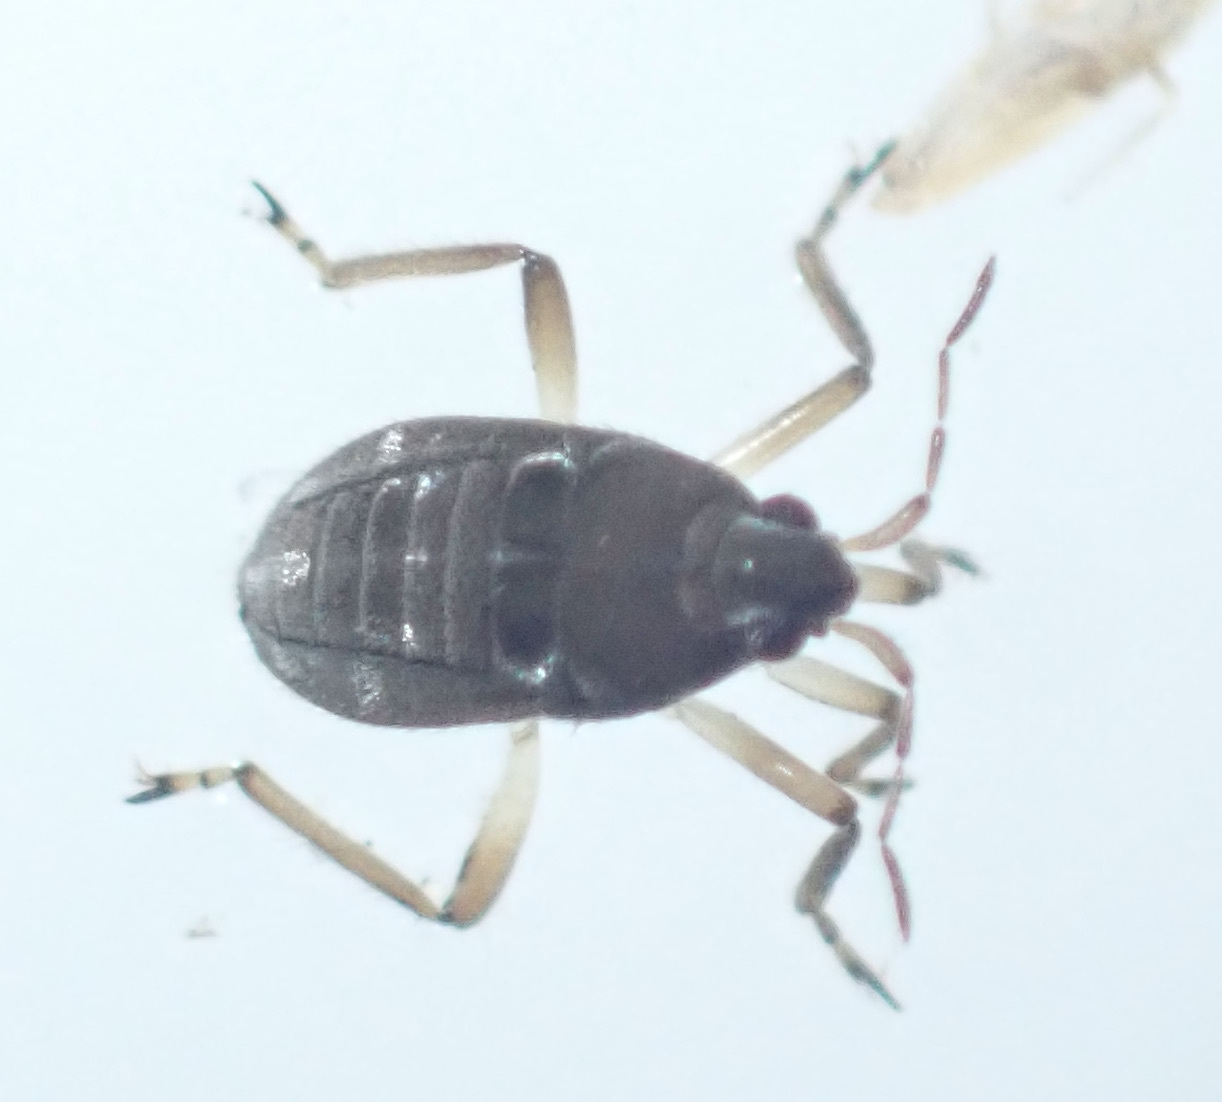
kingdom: Animalia
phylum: Arthropoda
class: Insecta
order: Hemiptera
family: Macroveliidae
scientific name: Macroveliidae
